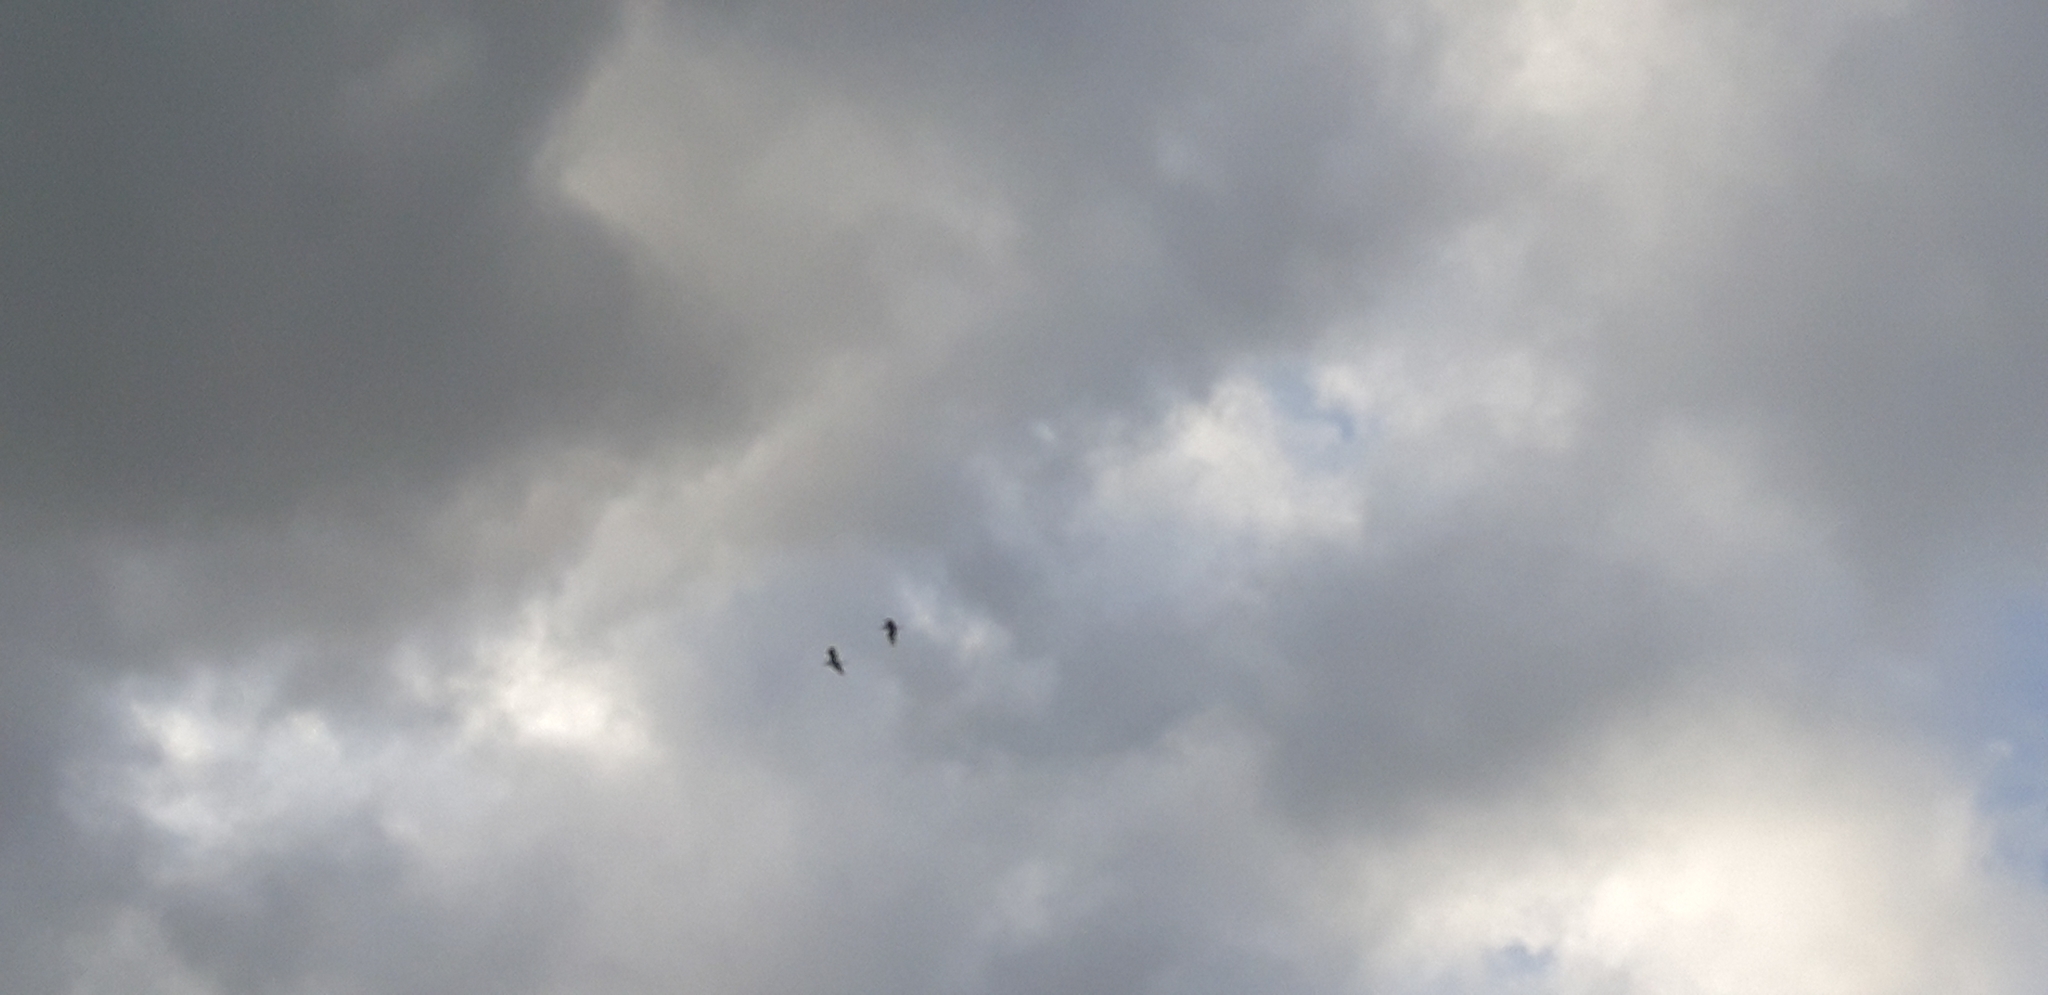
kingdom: Animalia
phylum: Chordata
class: Aves
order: Pelecaniformes
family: Ardeidae
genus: Ardea
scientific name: Ardea alba
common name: Great egret
